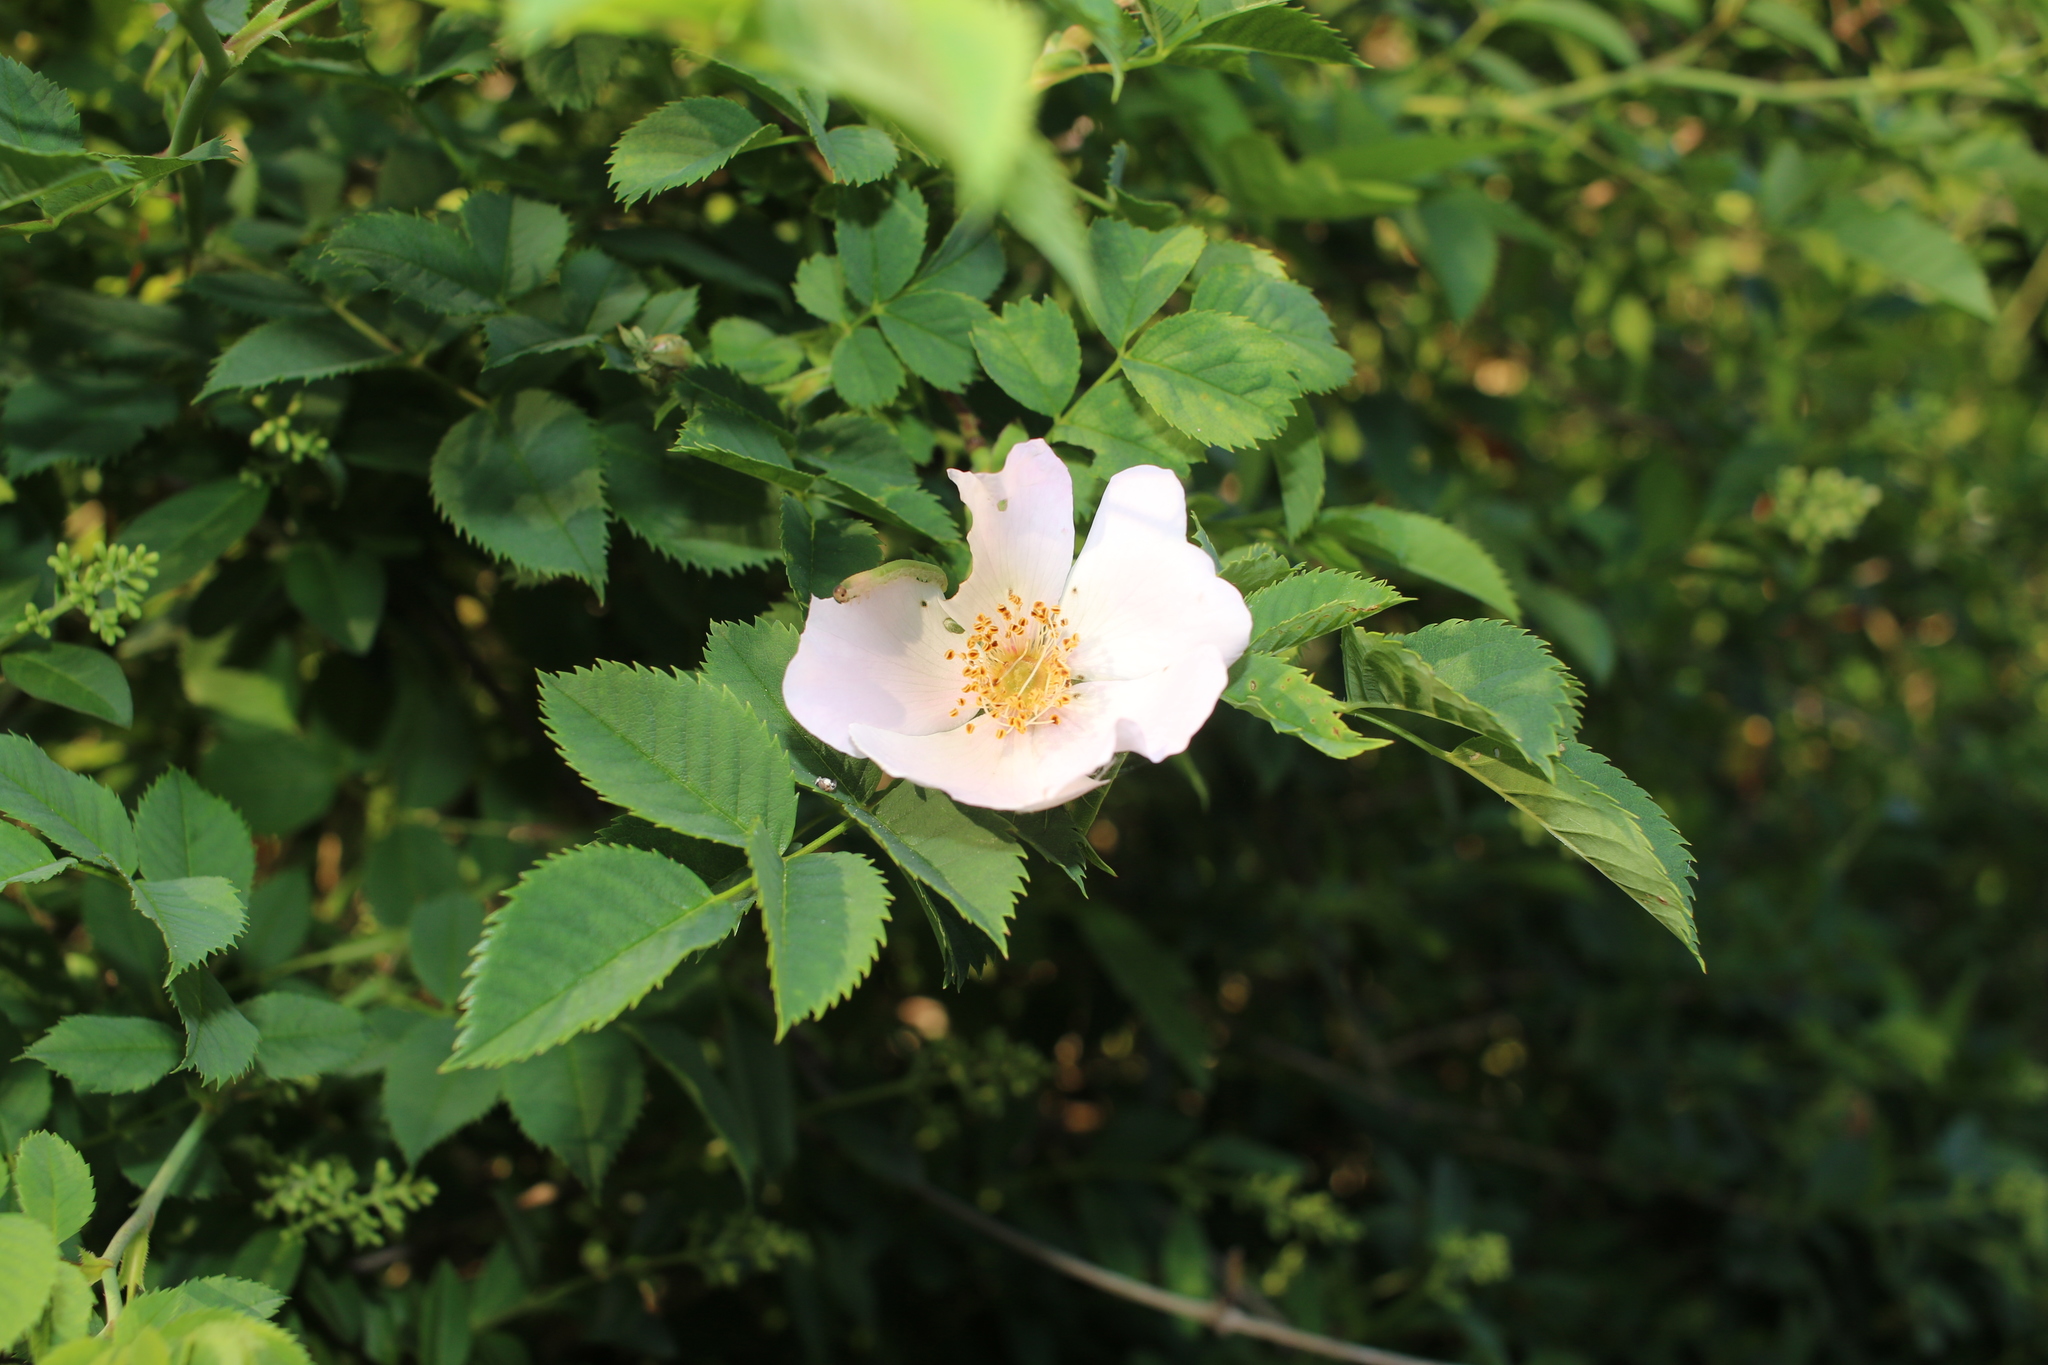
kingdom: Plantae
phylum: Tracheophyta
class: Magnoliopsida
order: Rosales
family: Rosaceae
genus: Rosa
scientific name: Rosa canina
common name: Dog rose
